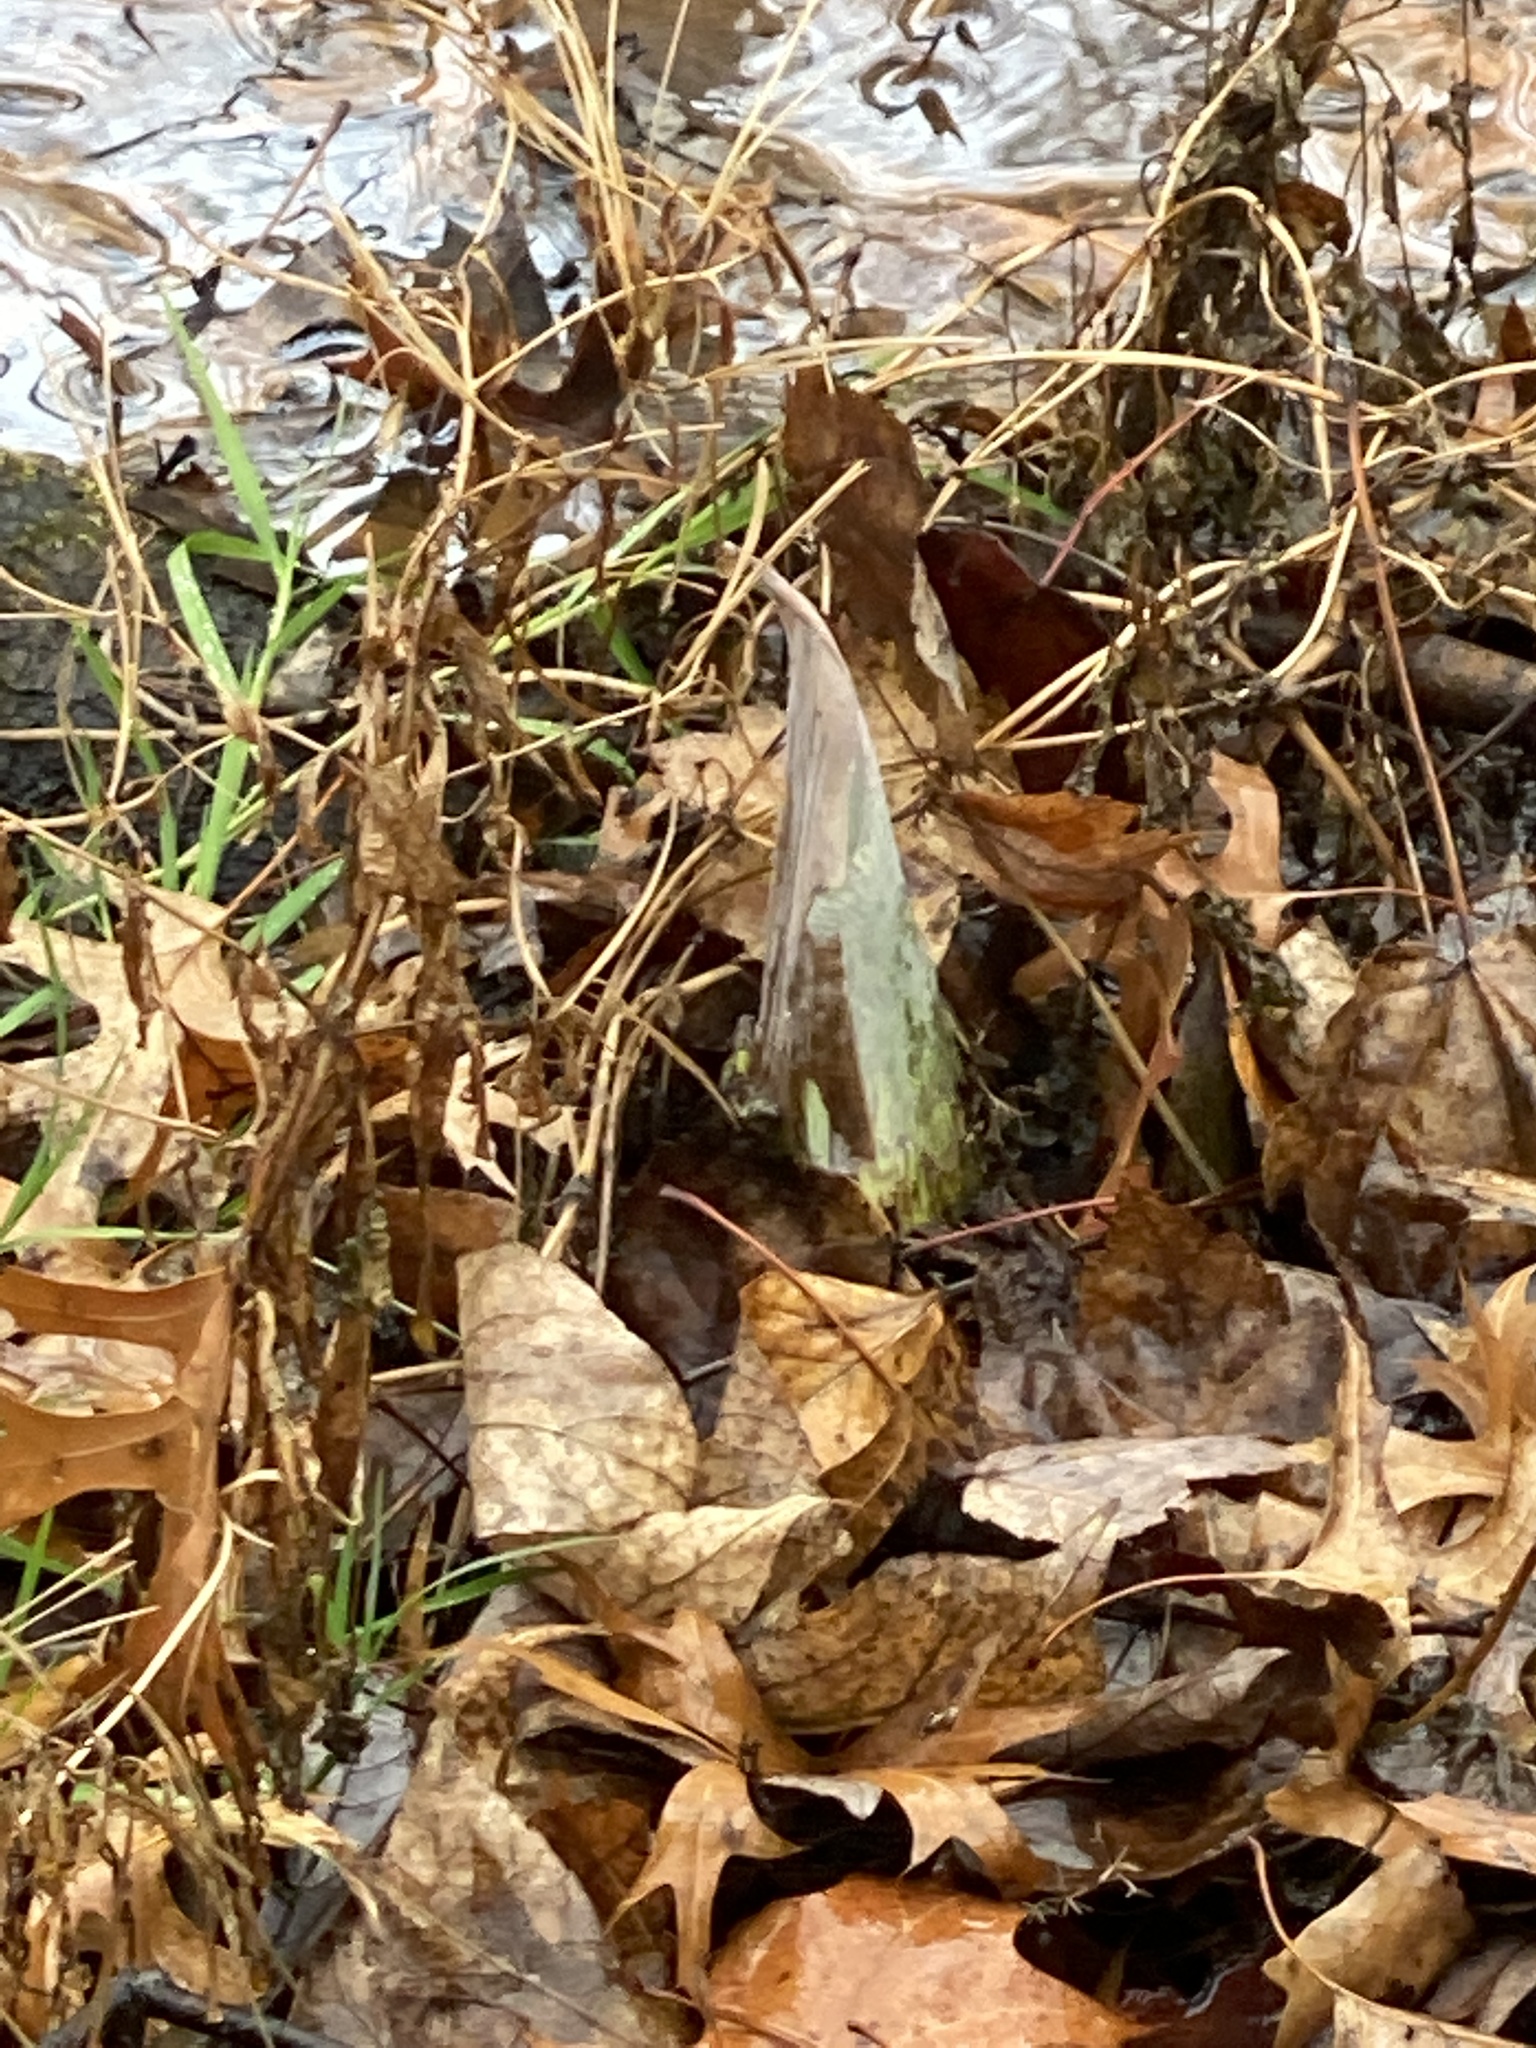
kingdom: Plantae
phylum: Tracheophyta
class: Liliopsida
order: Alismatales
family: Araceae
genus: Symplocarpus
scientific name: Symplocarpus foetidus
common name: Eastern skunk cabbage
